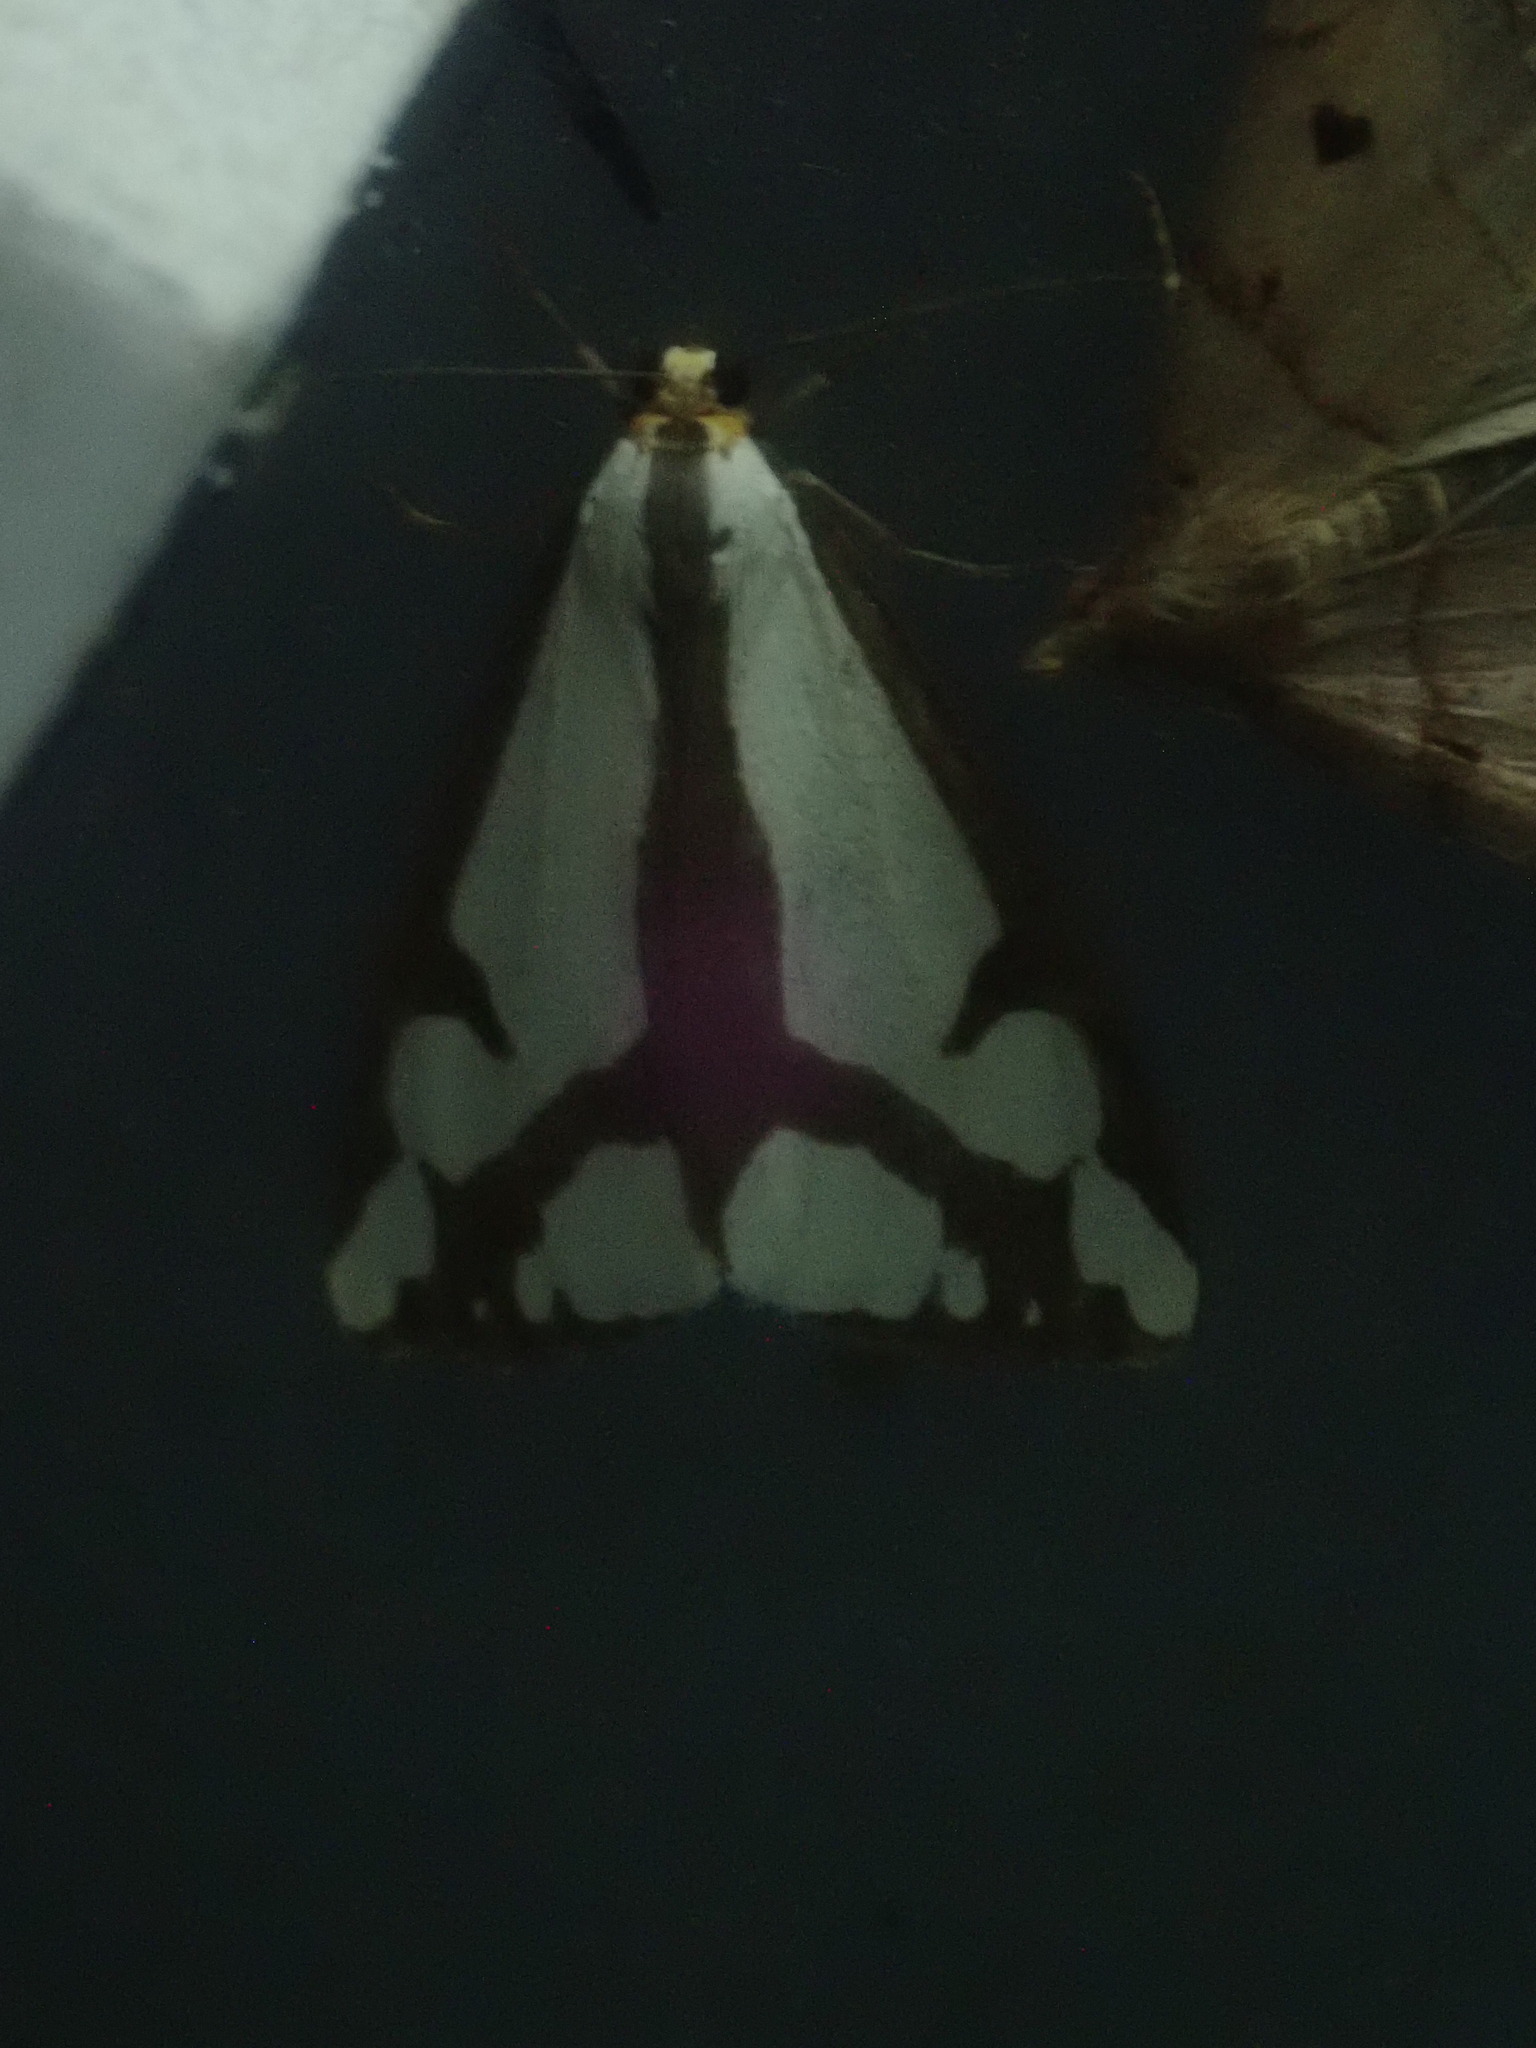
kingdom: Animalia
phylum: Arthropoda
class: Insecta
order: Lepidoptera
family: Erebidae
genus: Haploa
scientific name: Haploa lecontei
